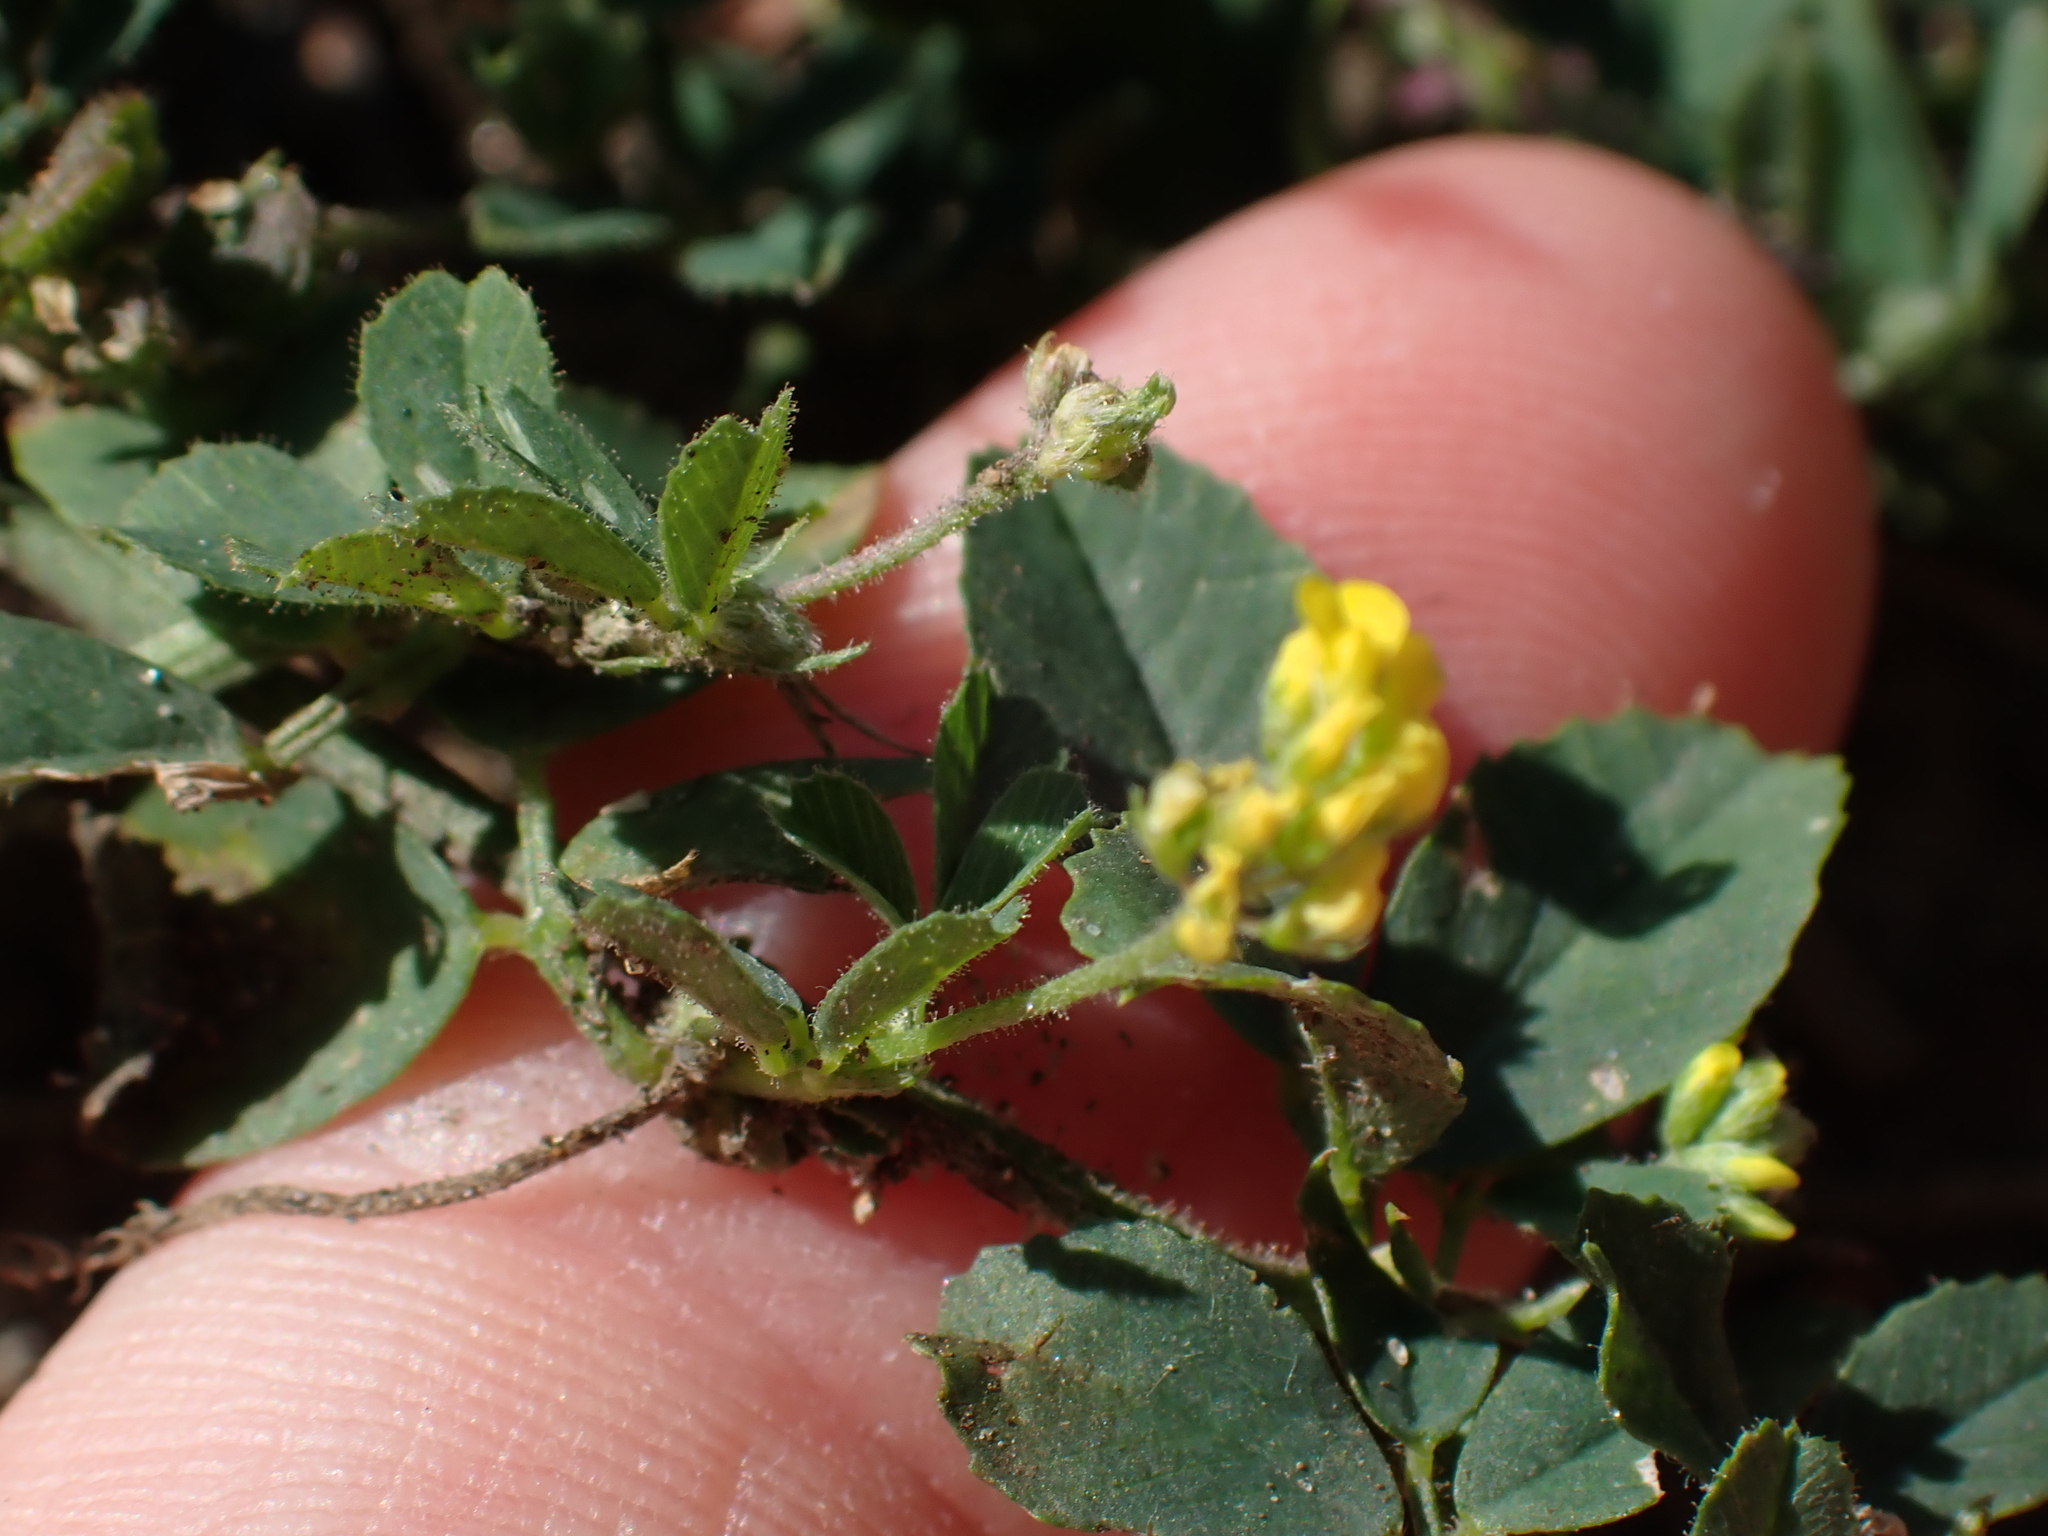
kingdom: Plantae
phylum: Tracheophyta
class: Magnoliopsida
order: Fabales
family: Fabaceae
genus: Medicago
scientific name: Medicago lupulina
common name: Black medick
